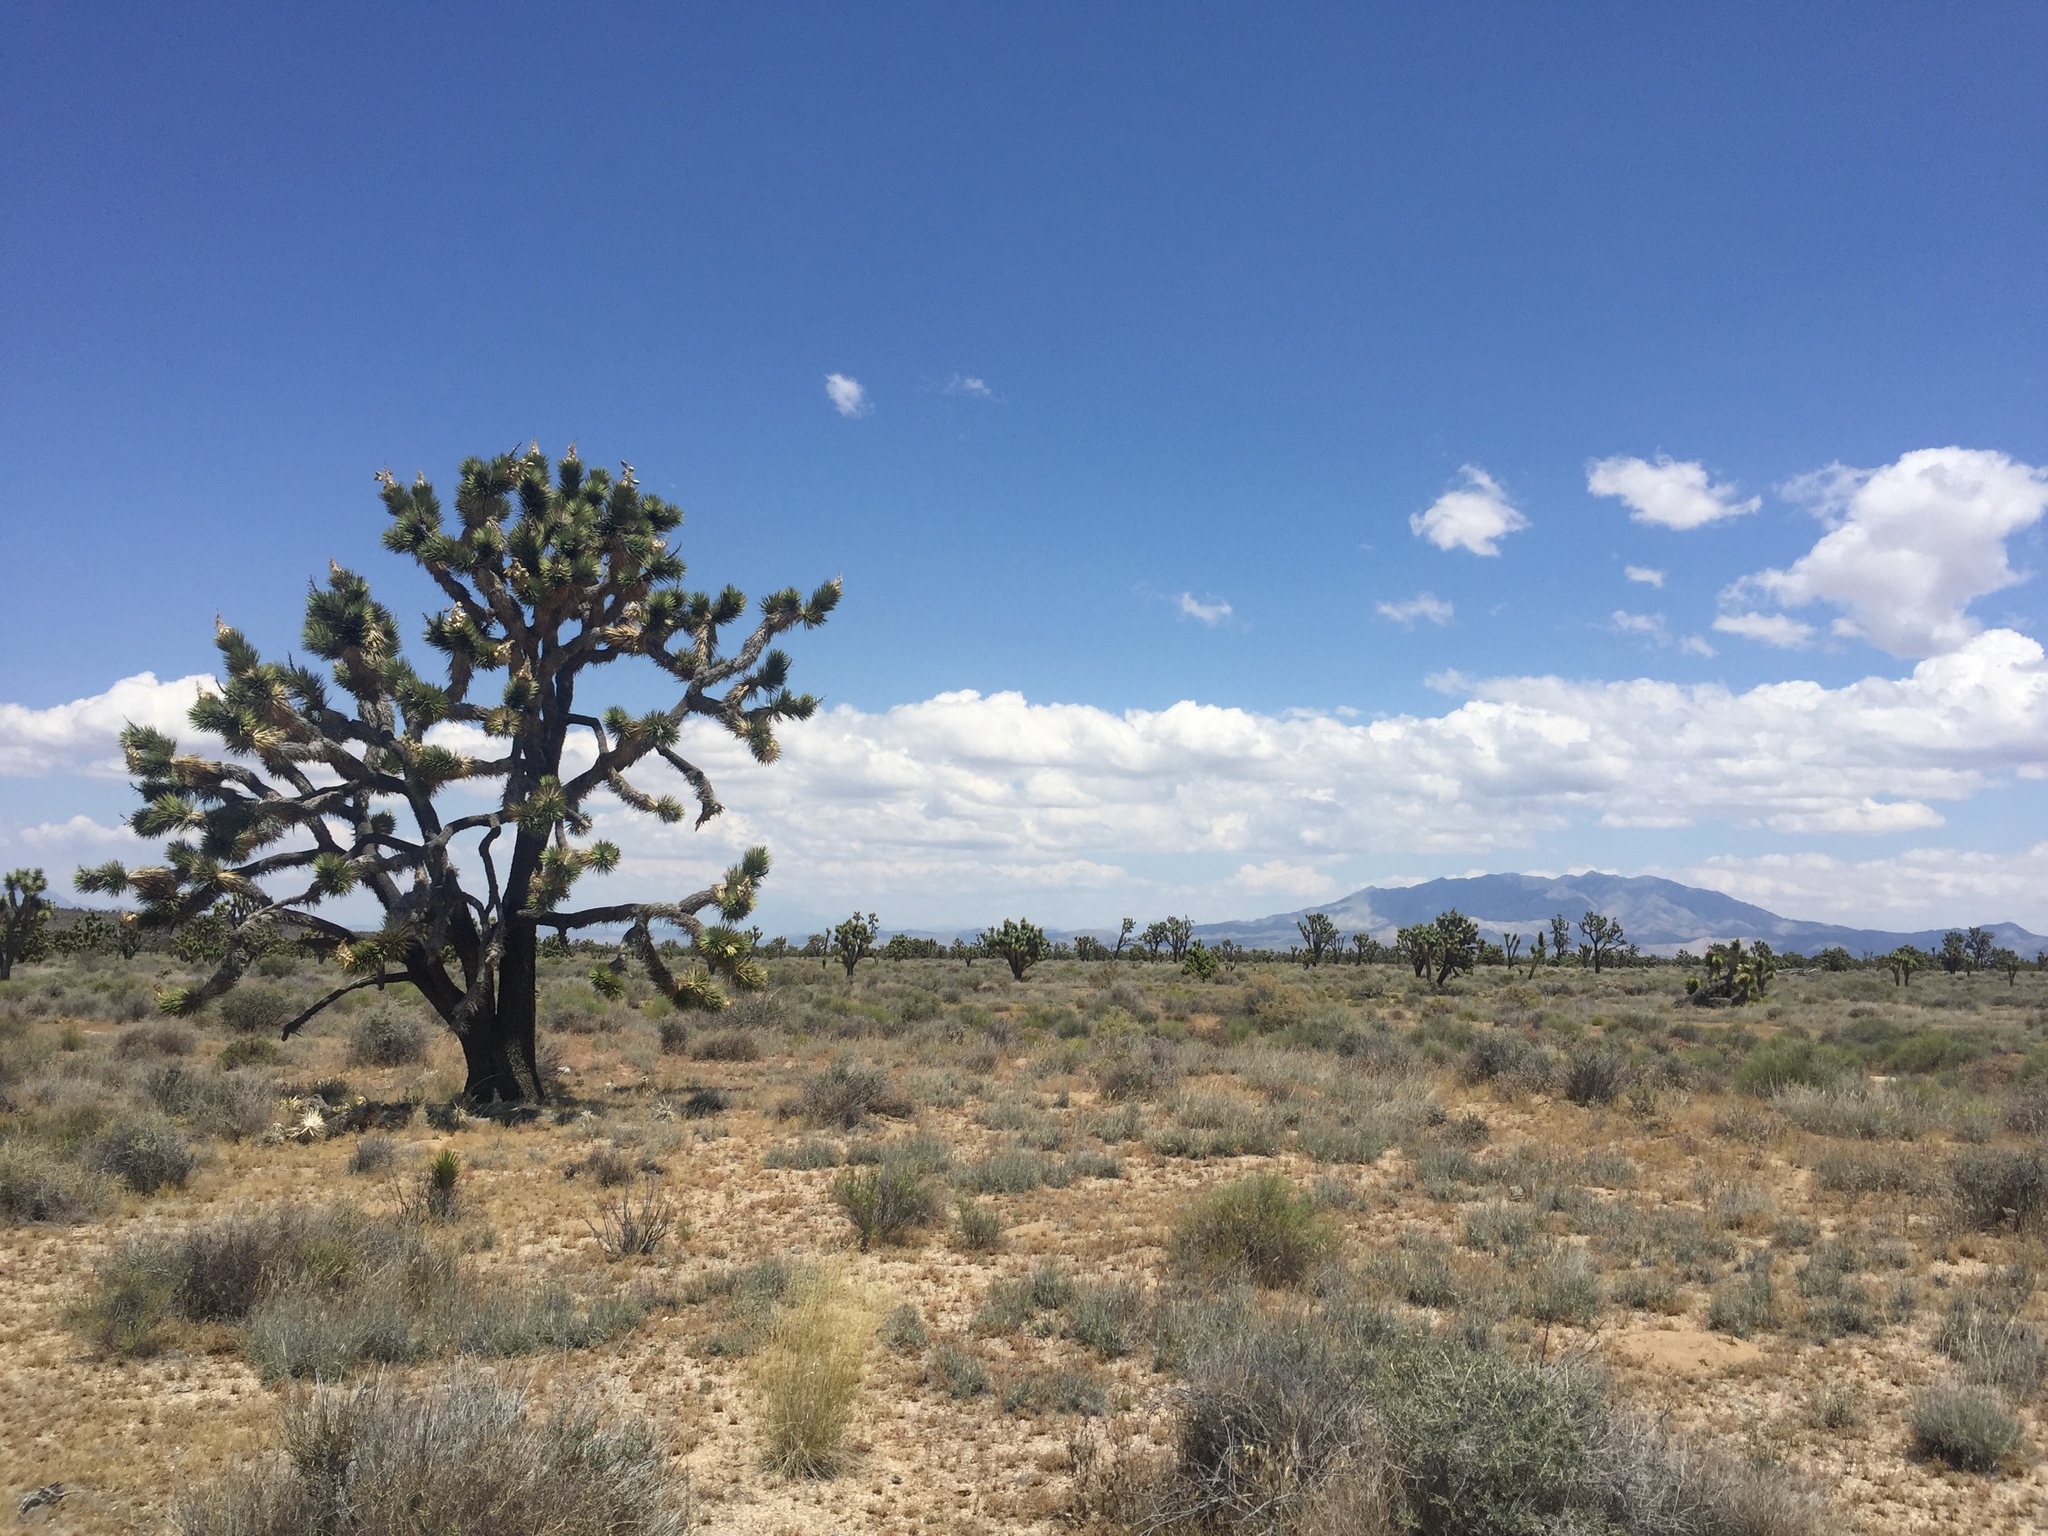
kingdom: Plantae
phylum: Tracheophyta
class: Liliopsida
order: Asparagales
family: Asparagaceae
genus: Yucca
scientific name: Yucca brevifolia
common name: Joshua tree
